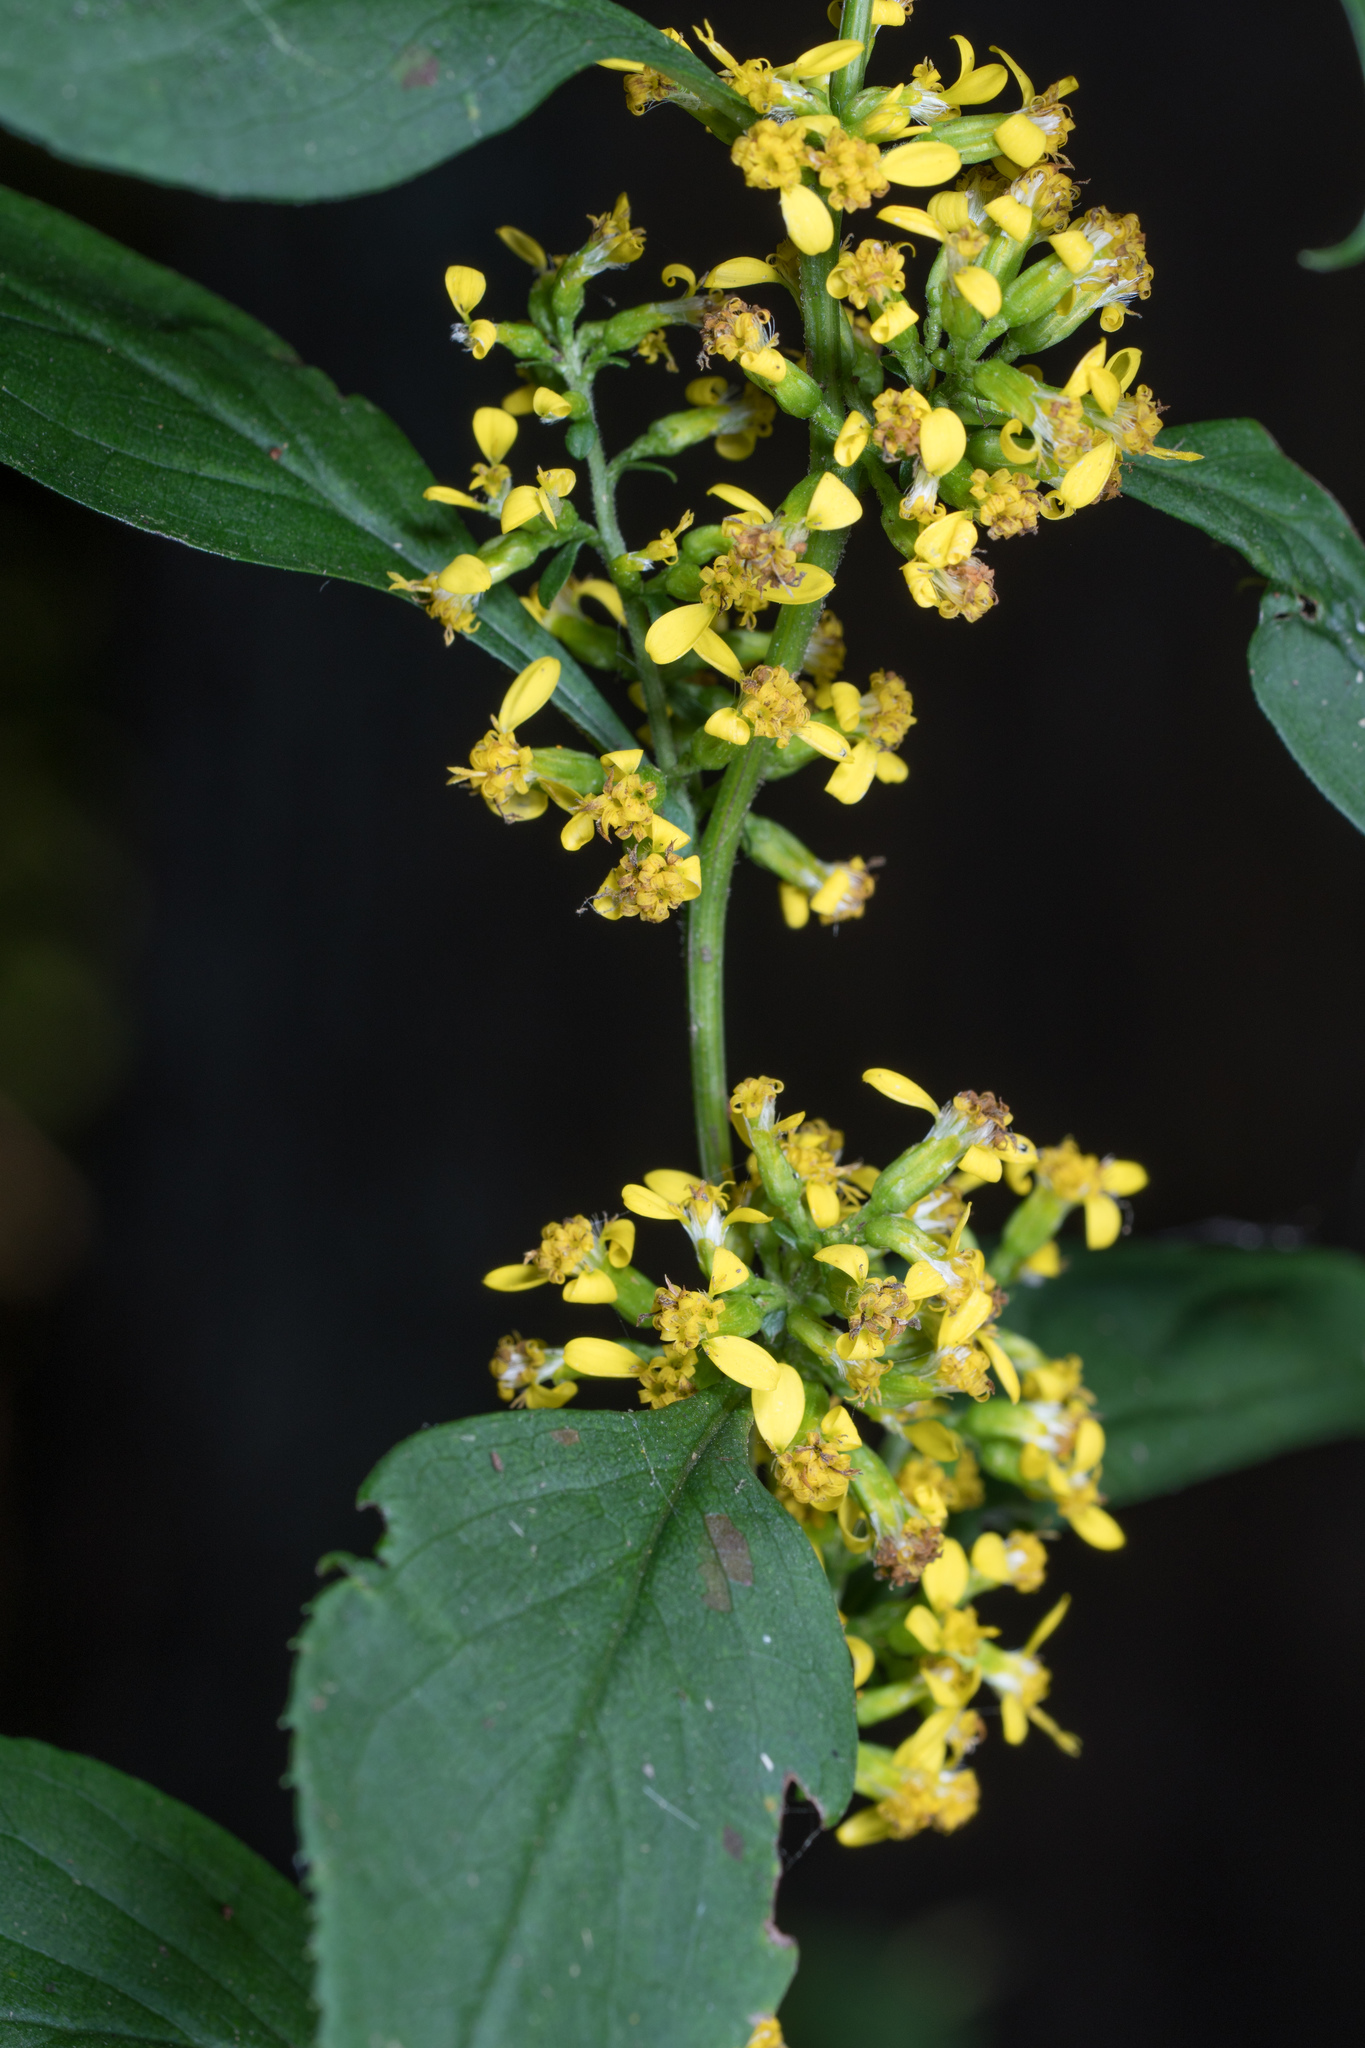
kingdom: Plantae
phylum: Tracheophyta
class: Magnoliopsida
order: Asterales
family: Asteraceae
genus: Solidago
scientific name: Solidago flexicaulis
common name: Zig-zag goldenrod
